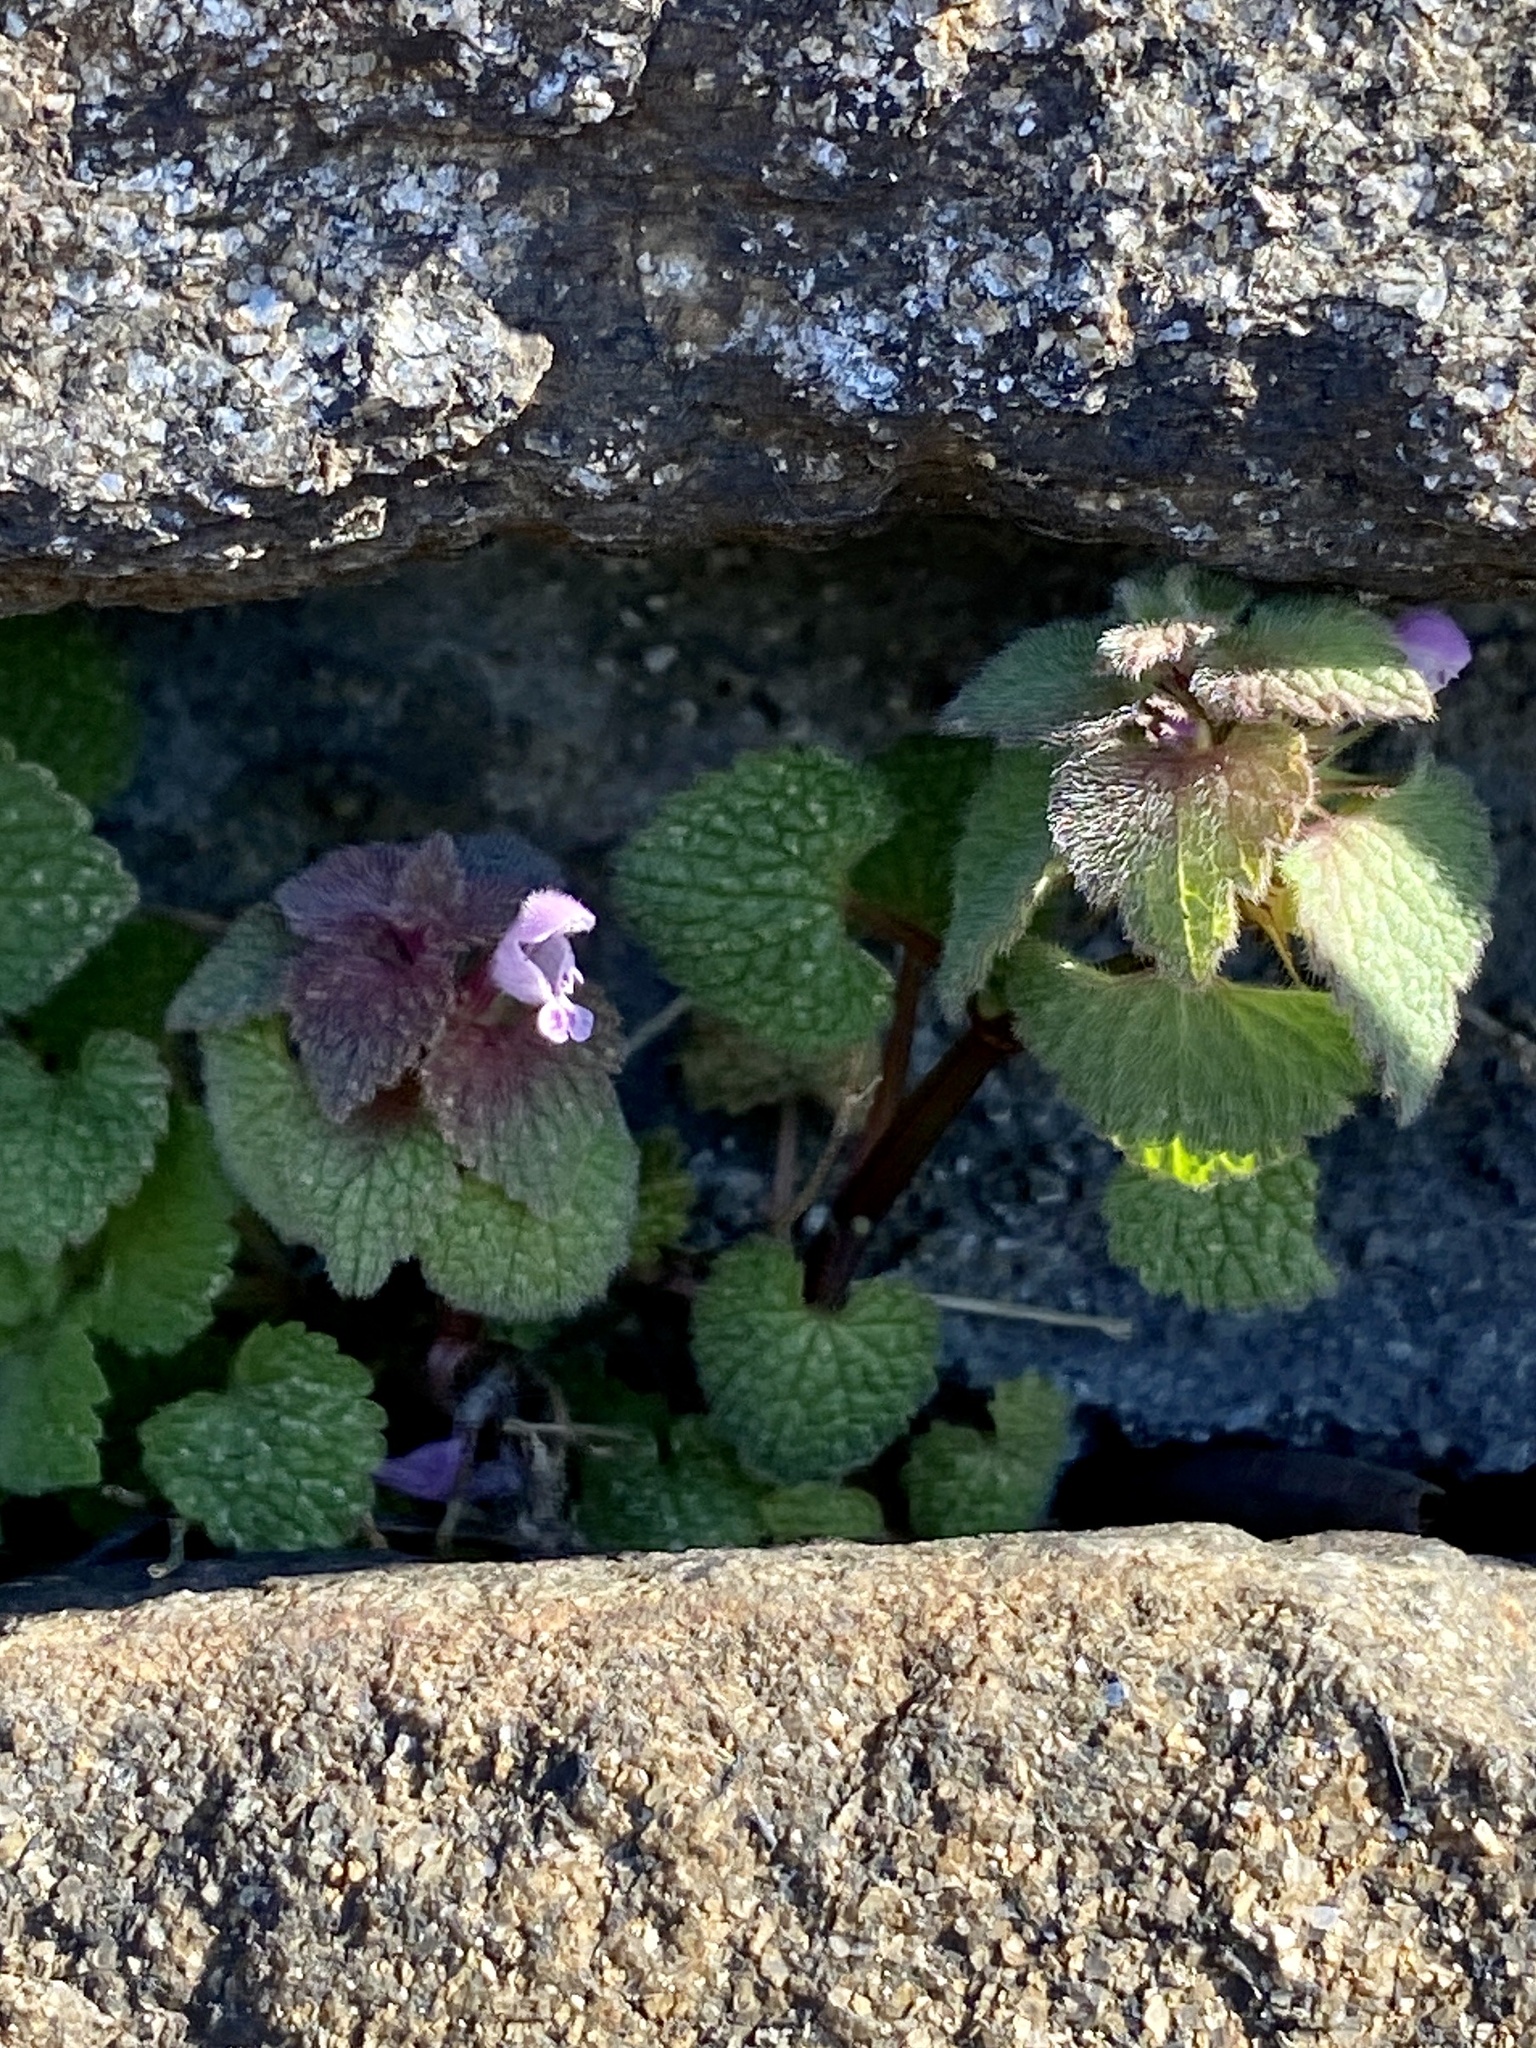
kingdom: Plantae
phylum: Tracheophyta
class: Magnoliopsida
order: Lamiales
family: Lamiaceae
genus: Lamium
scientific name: Lamium purpureum
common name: Red dead-nettle
